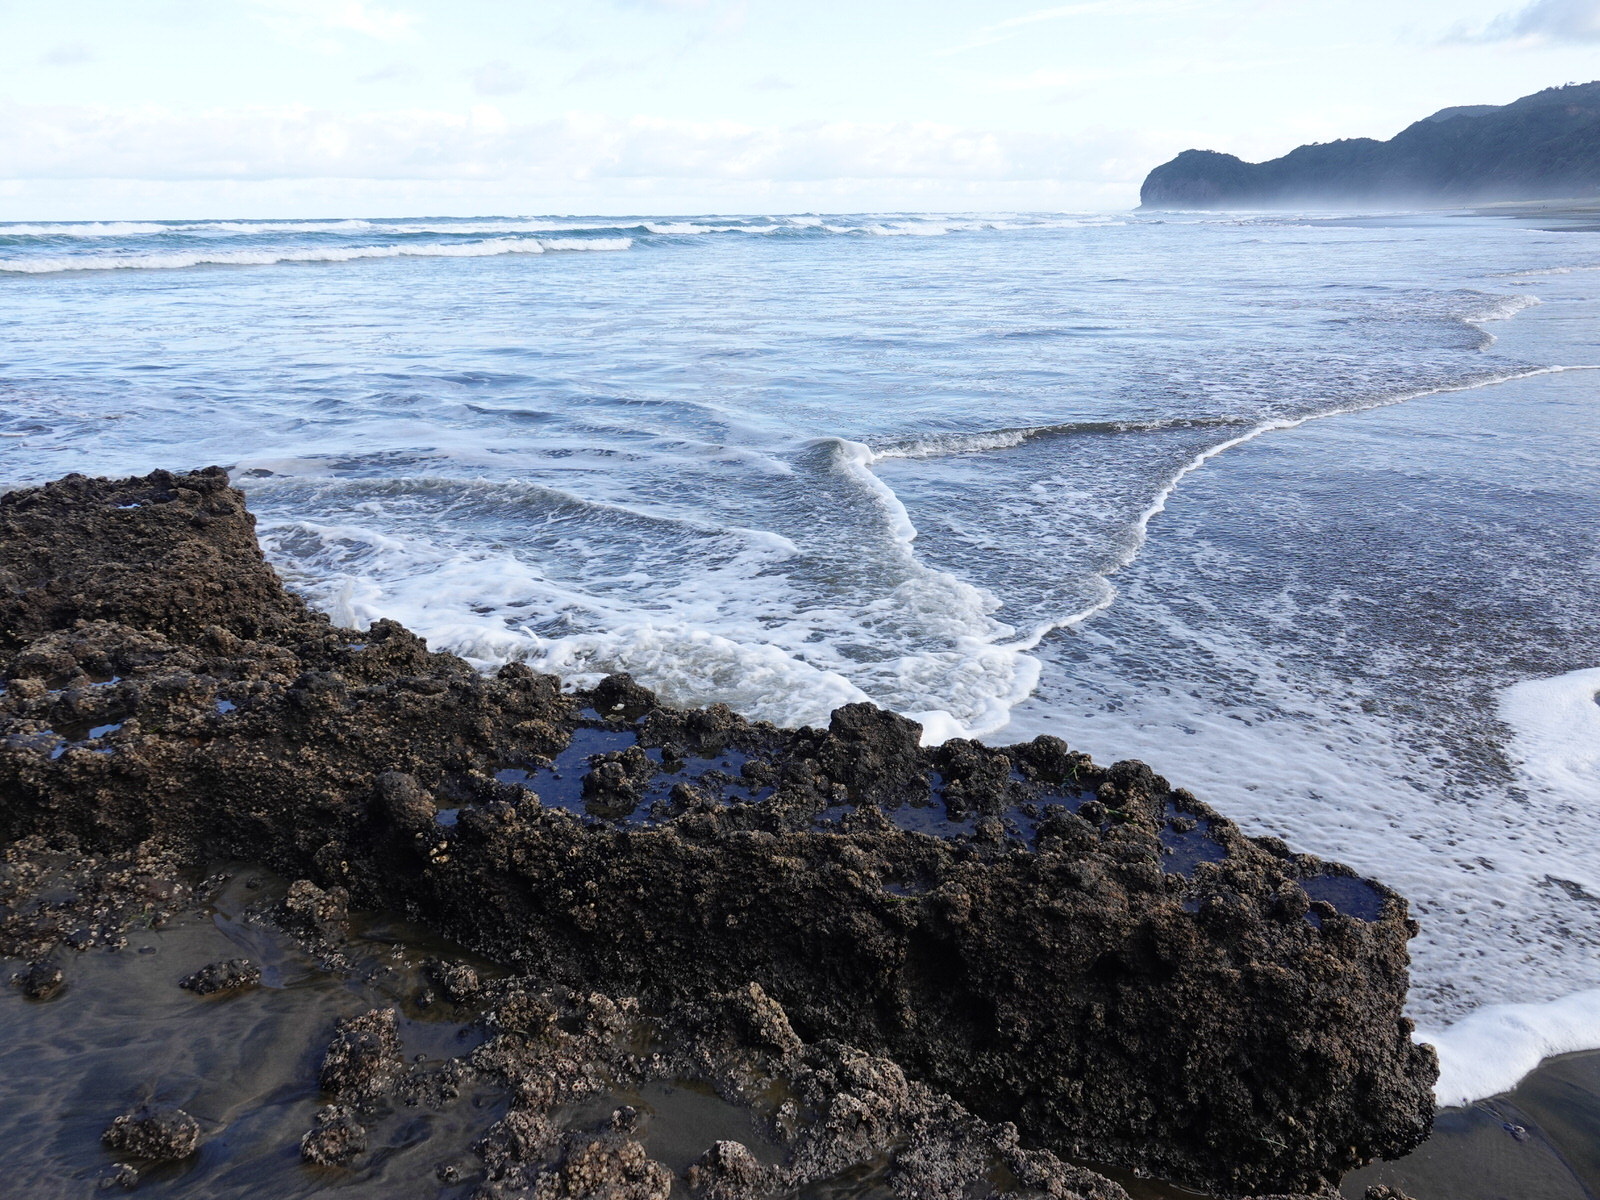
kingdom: Animalia
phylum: Mollusca
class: Bivalvia
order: Mytilida
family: Mytilidae
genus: Xenostrobus
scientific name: Xenostrobus neozelanicus
